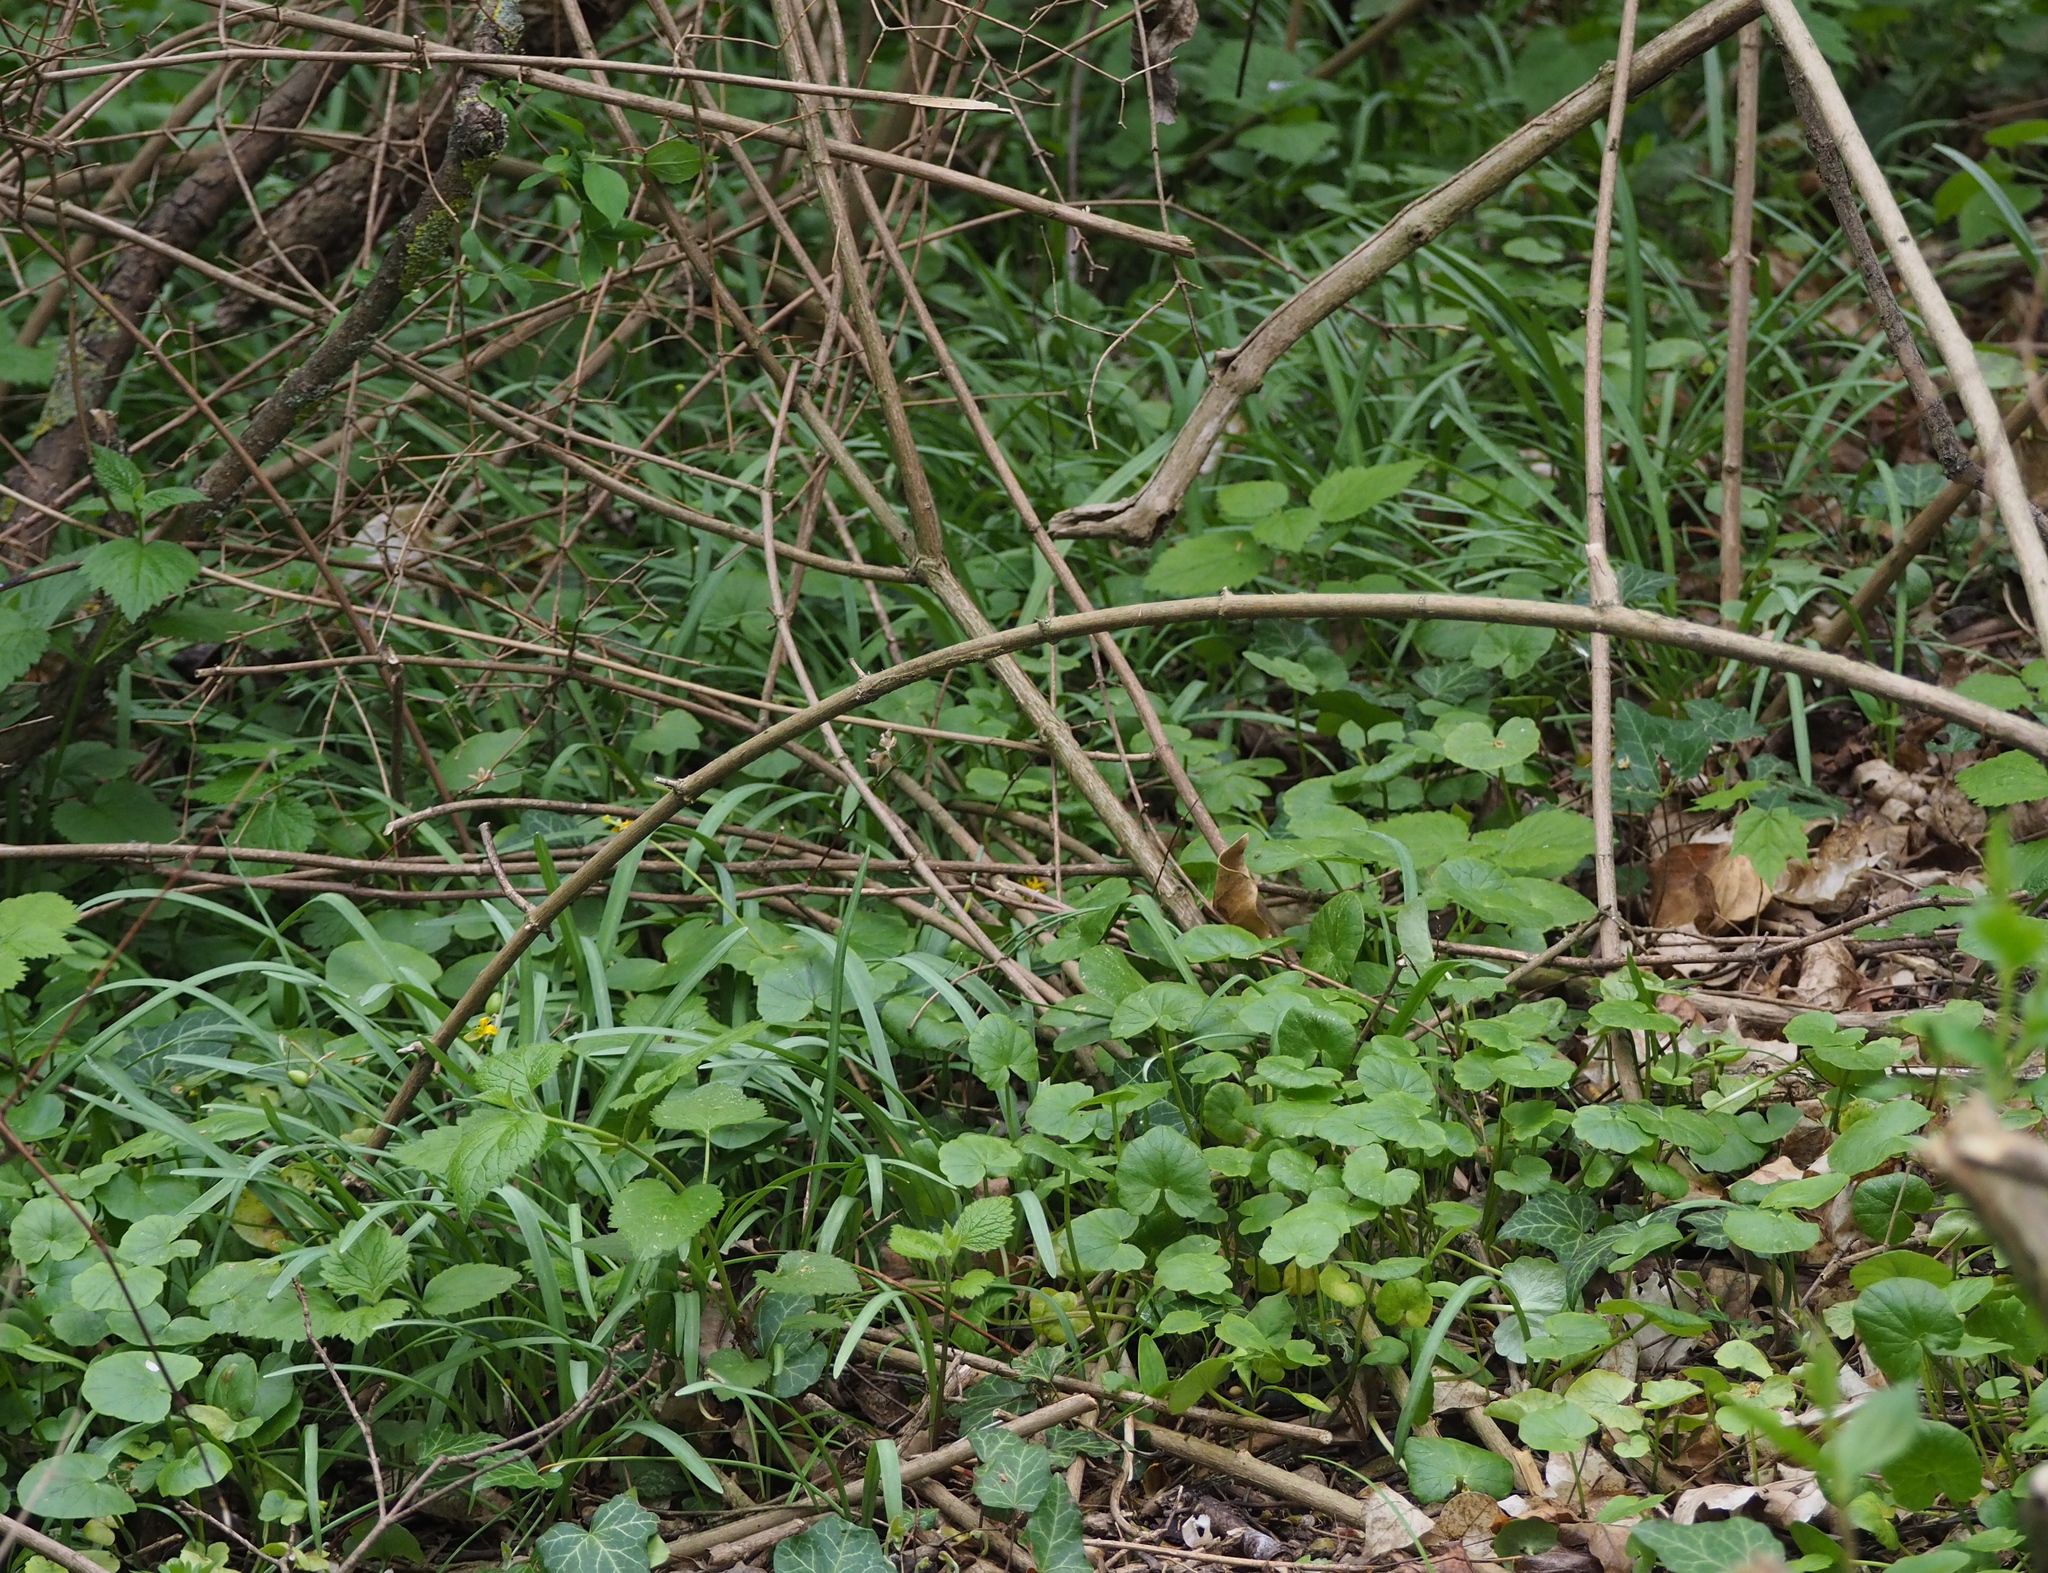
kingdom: Plantae
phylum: Tracheophyta
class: Liliopsida
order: Asparagales
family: Amaryllidaceae
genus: Galanthus
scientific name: Galanthus nivalis
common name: Snowdrop
